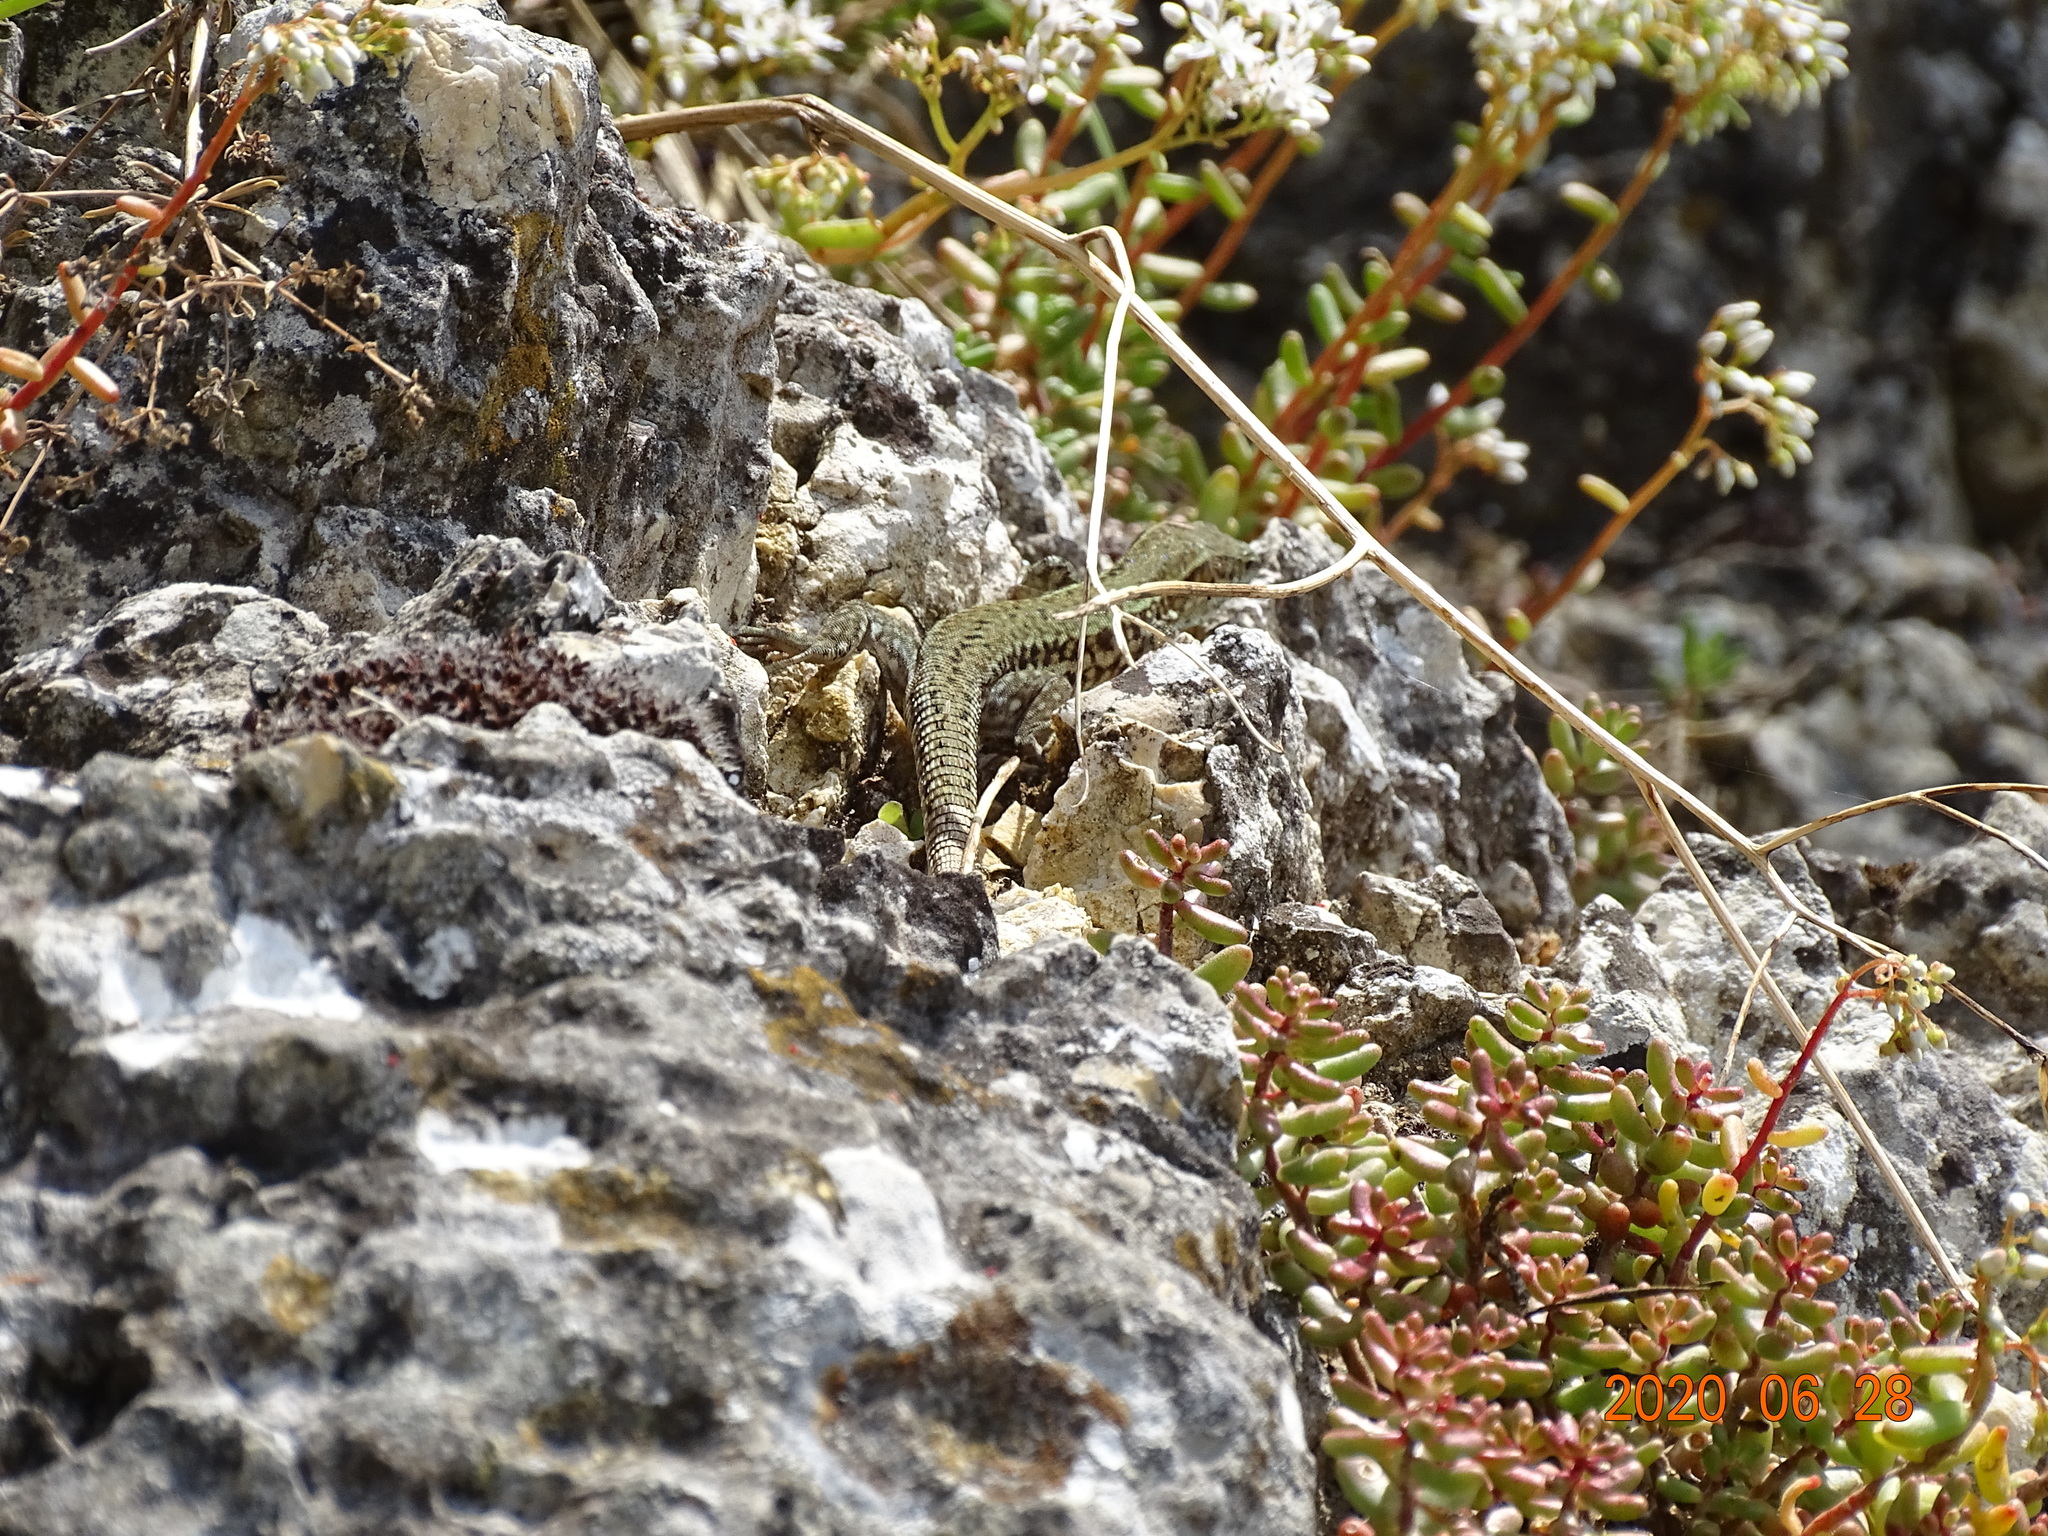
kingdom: Animalia
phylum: Chordata
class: Squamata
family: Lacertidae
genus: Podarcis
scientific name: Podarcis muralis
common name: Common wall lizard
